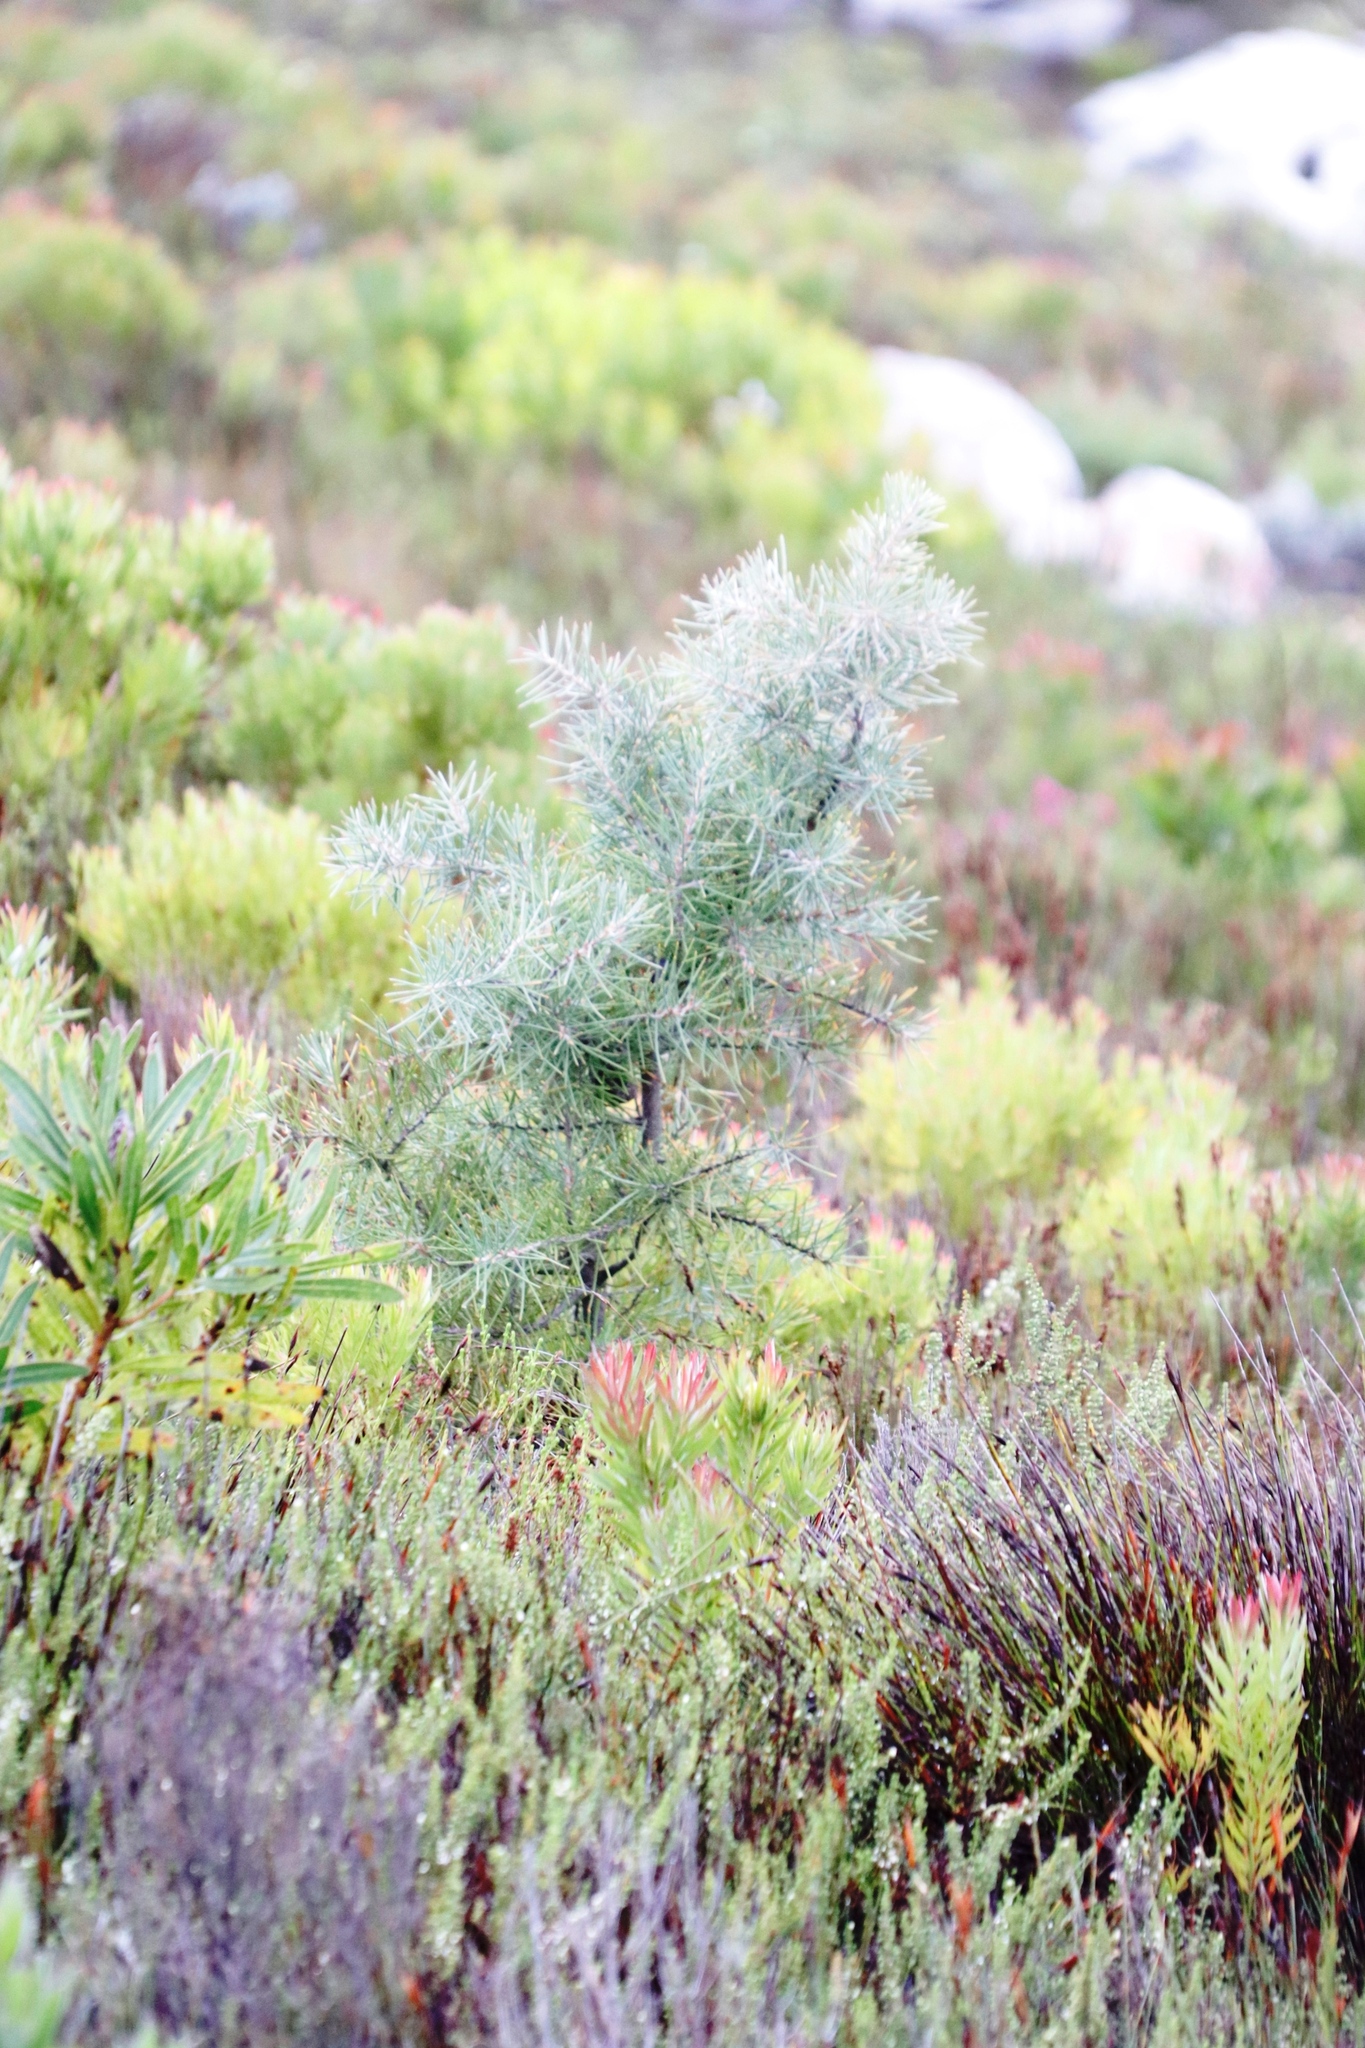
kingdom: Plantae
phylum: Tracheophyta
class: Magnoliopsida
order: Proteales
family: Proteaceae
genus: Hakea
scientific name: Hakea gibbosa
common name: Rock hakea
